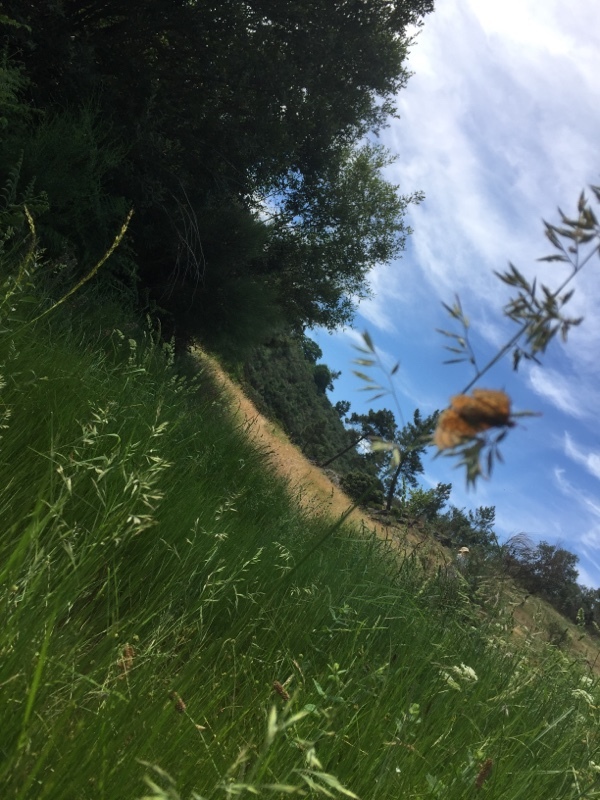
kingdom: Animalia
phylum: Arthropoda
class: Insecta
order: Lepidoptera
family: Nymphalidae
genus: Euphydryas
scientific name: Euphydryas aurinia
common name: Marsh fritillary
